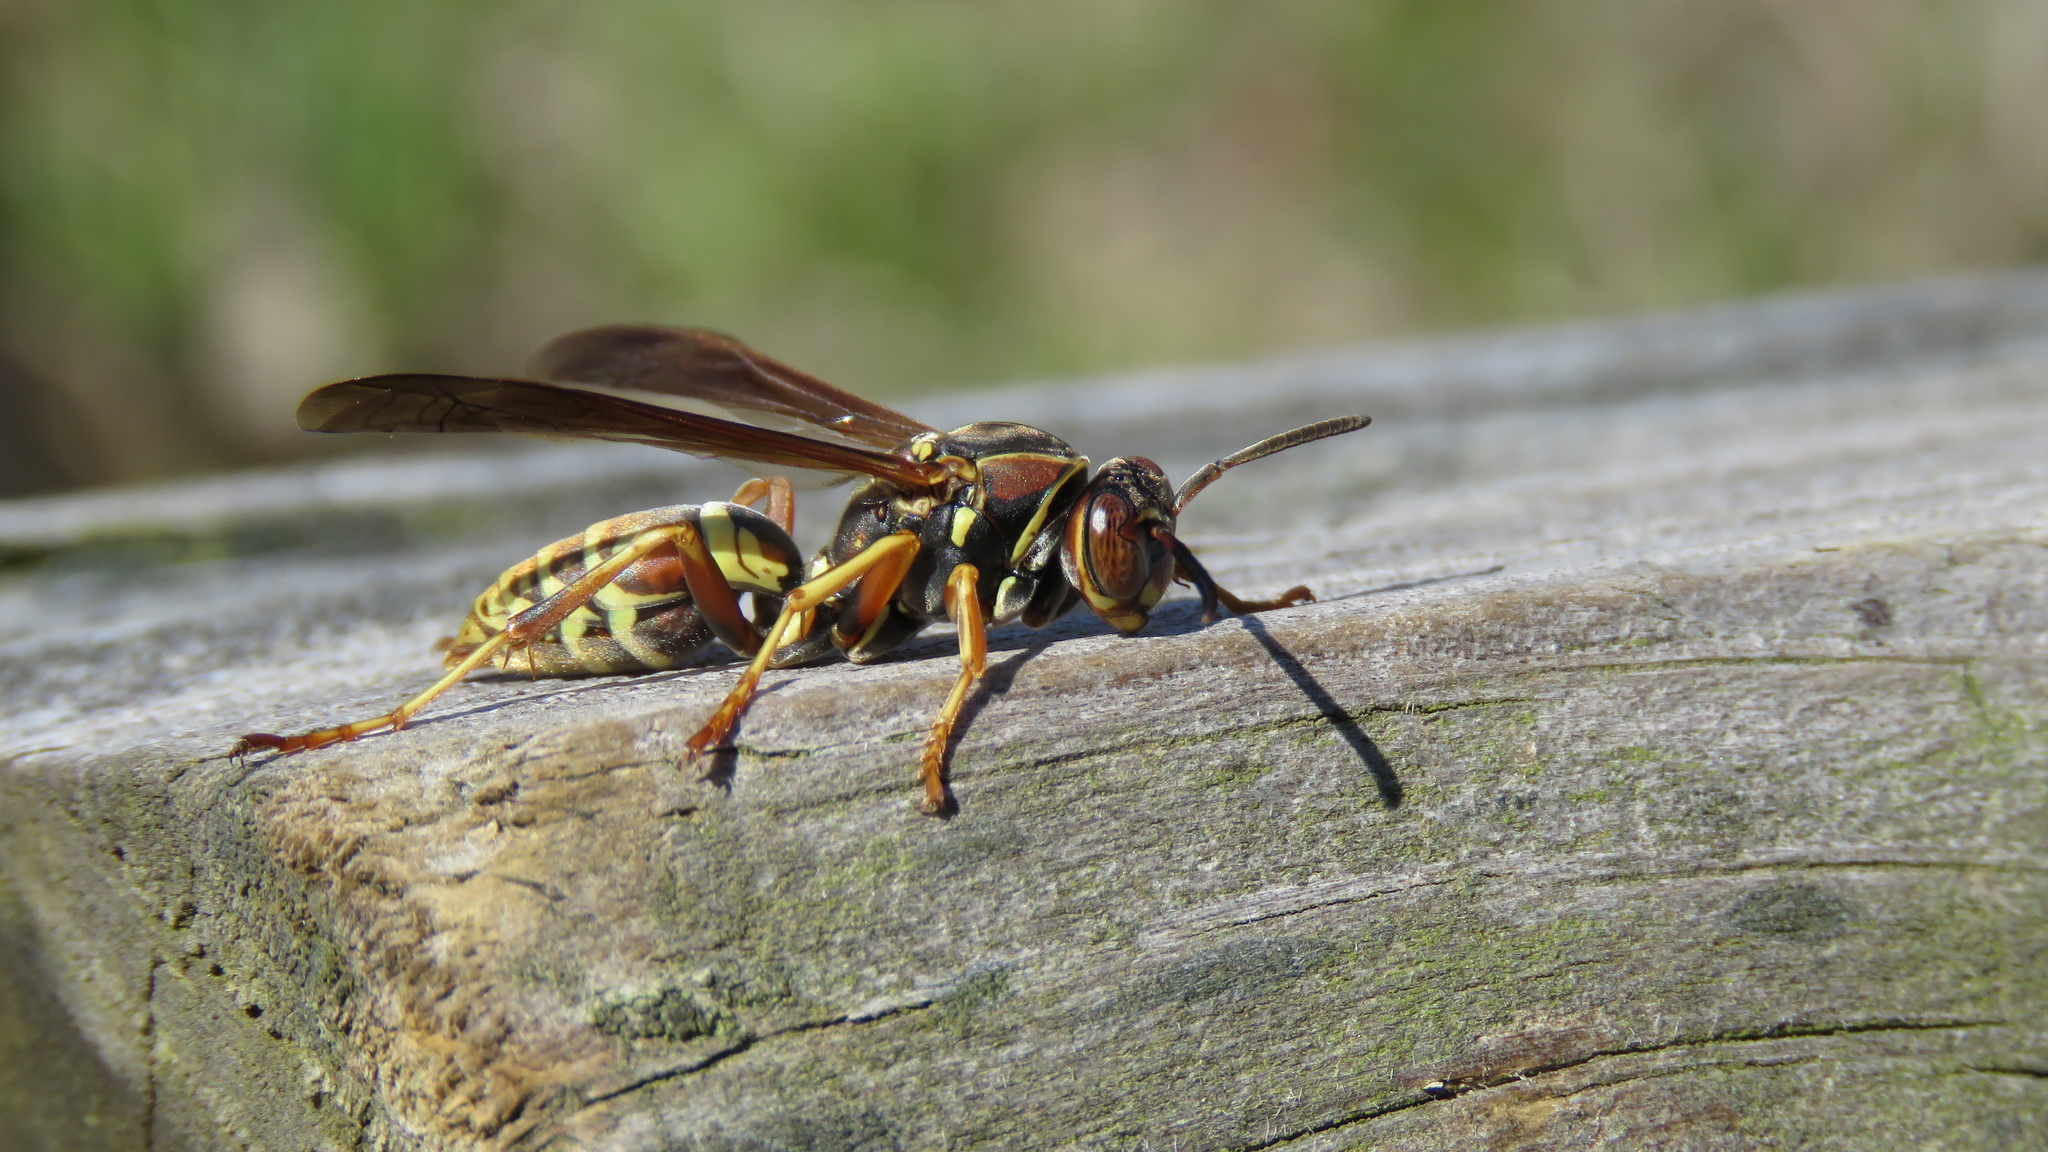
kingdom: Animalia
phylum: Arthropoda
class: Insecta
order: Hymenoptera
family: Eumenidae
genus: Polistes
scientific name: Polistes fuscatus
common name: Dark paper wasp
